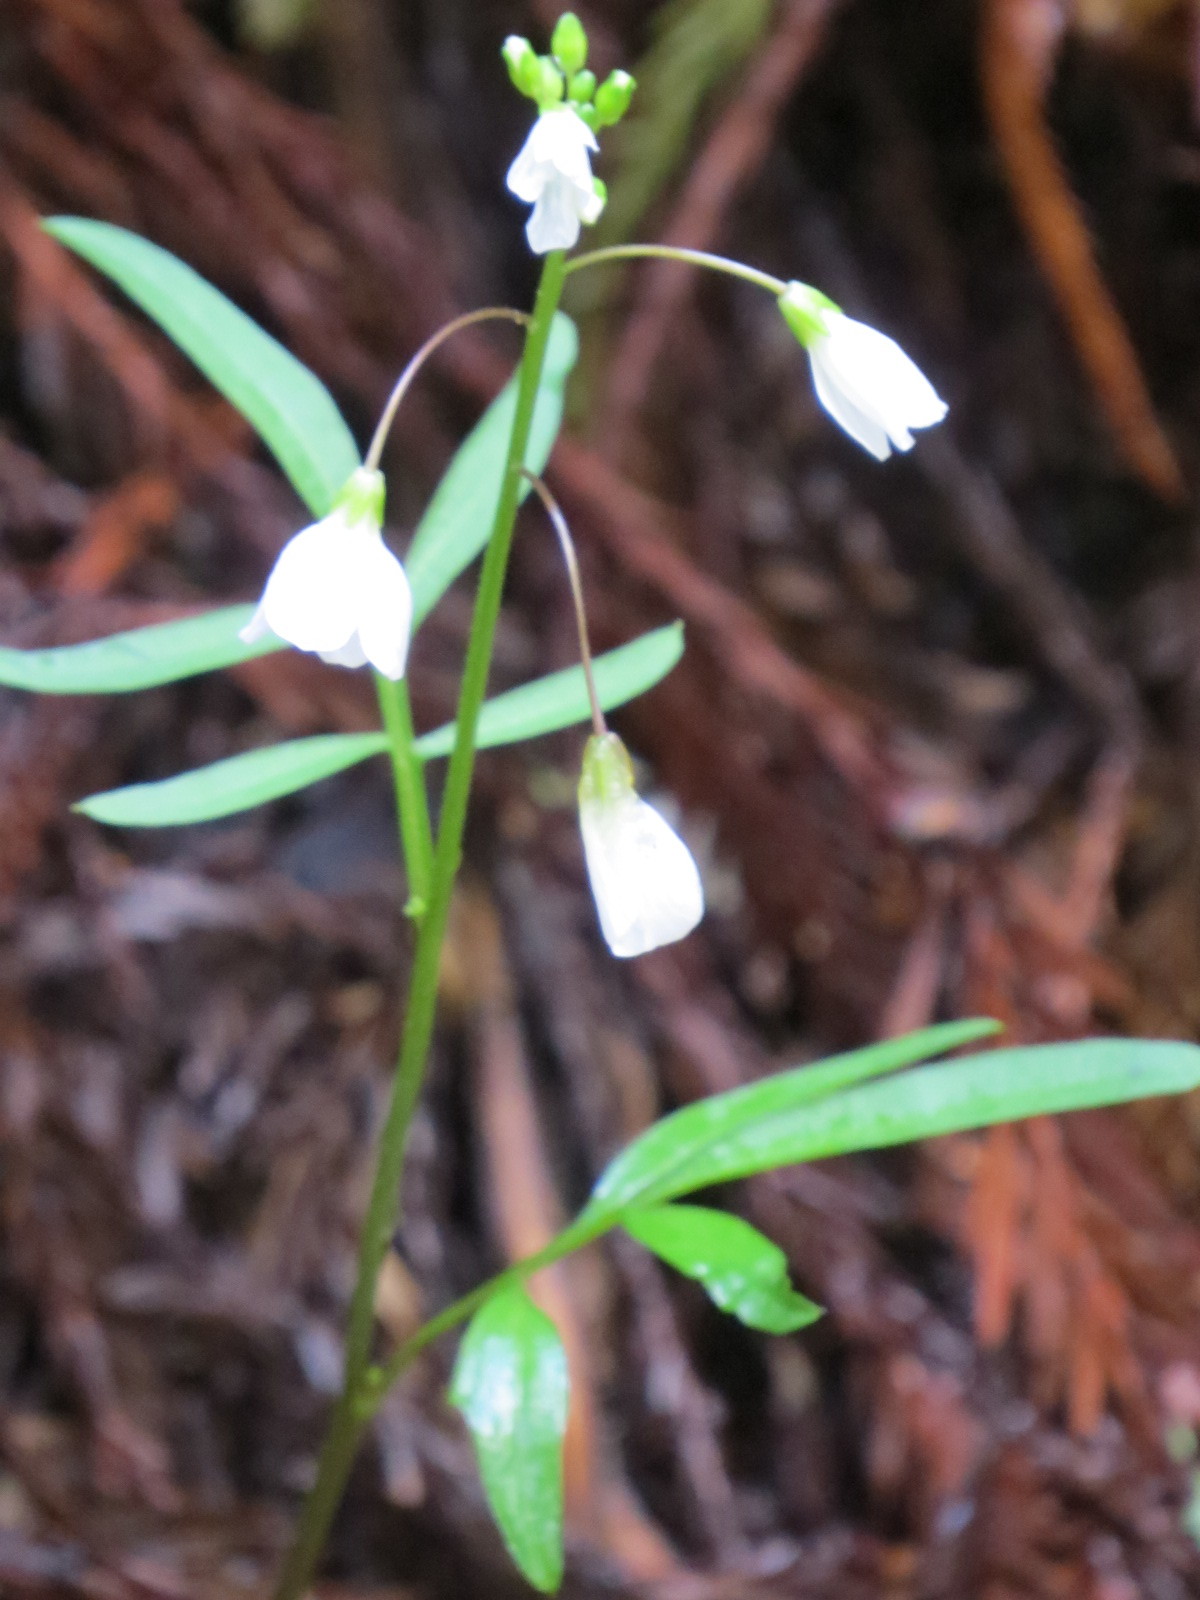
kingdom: Plantae
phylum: Tracheophyta
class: Magnoliopsida
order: Brassicales
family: Brassicaceae
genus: Cardamine
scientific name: Cardamine californica
